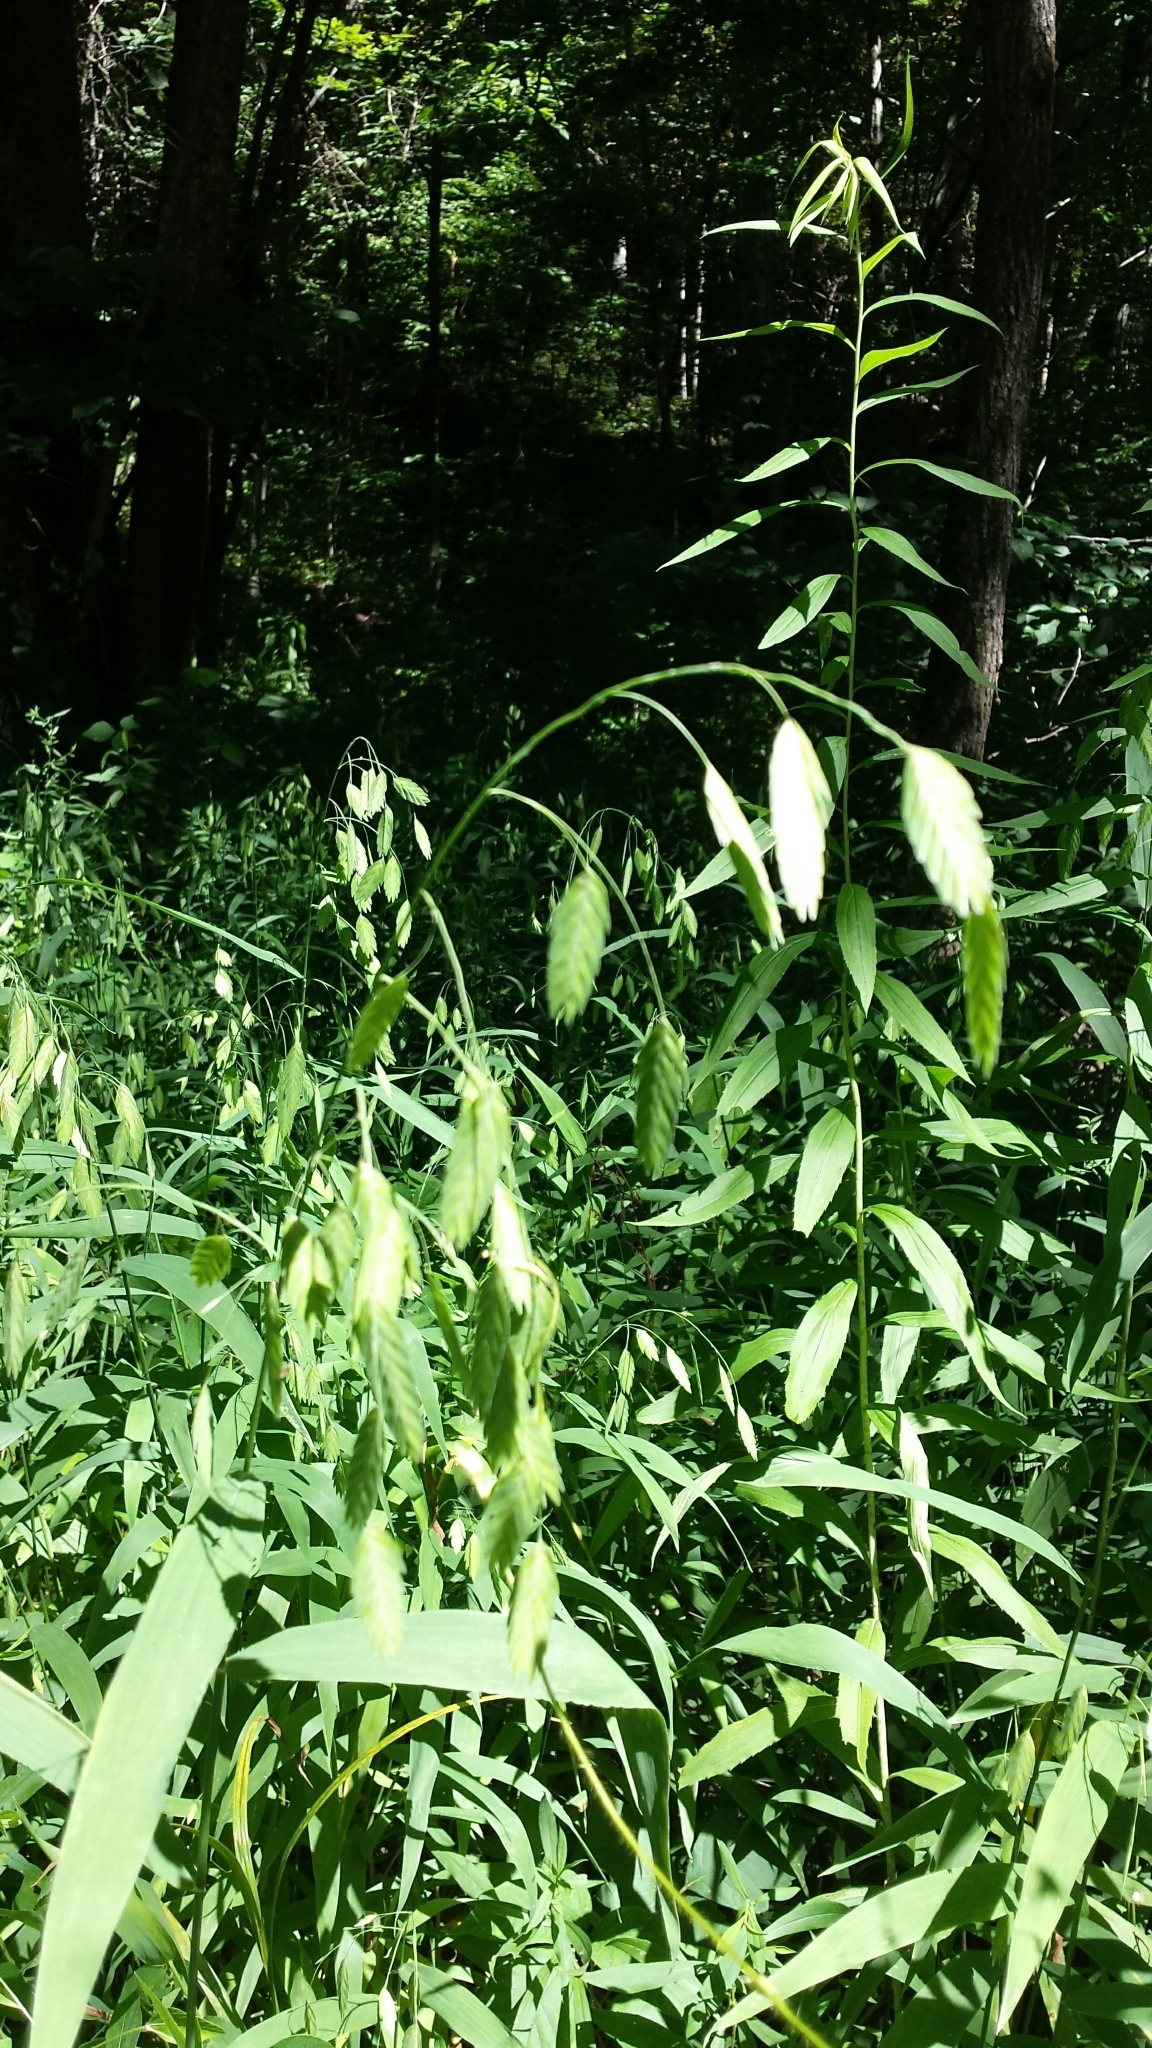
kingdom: Plantae
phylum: Tracheophyta
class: Liliopsida
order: Poales
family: Poaceae
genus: Chasmanthium
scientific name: Chasmanthium latifolium
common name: Broad-leaved chasmanthium
